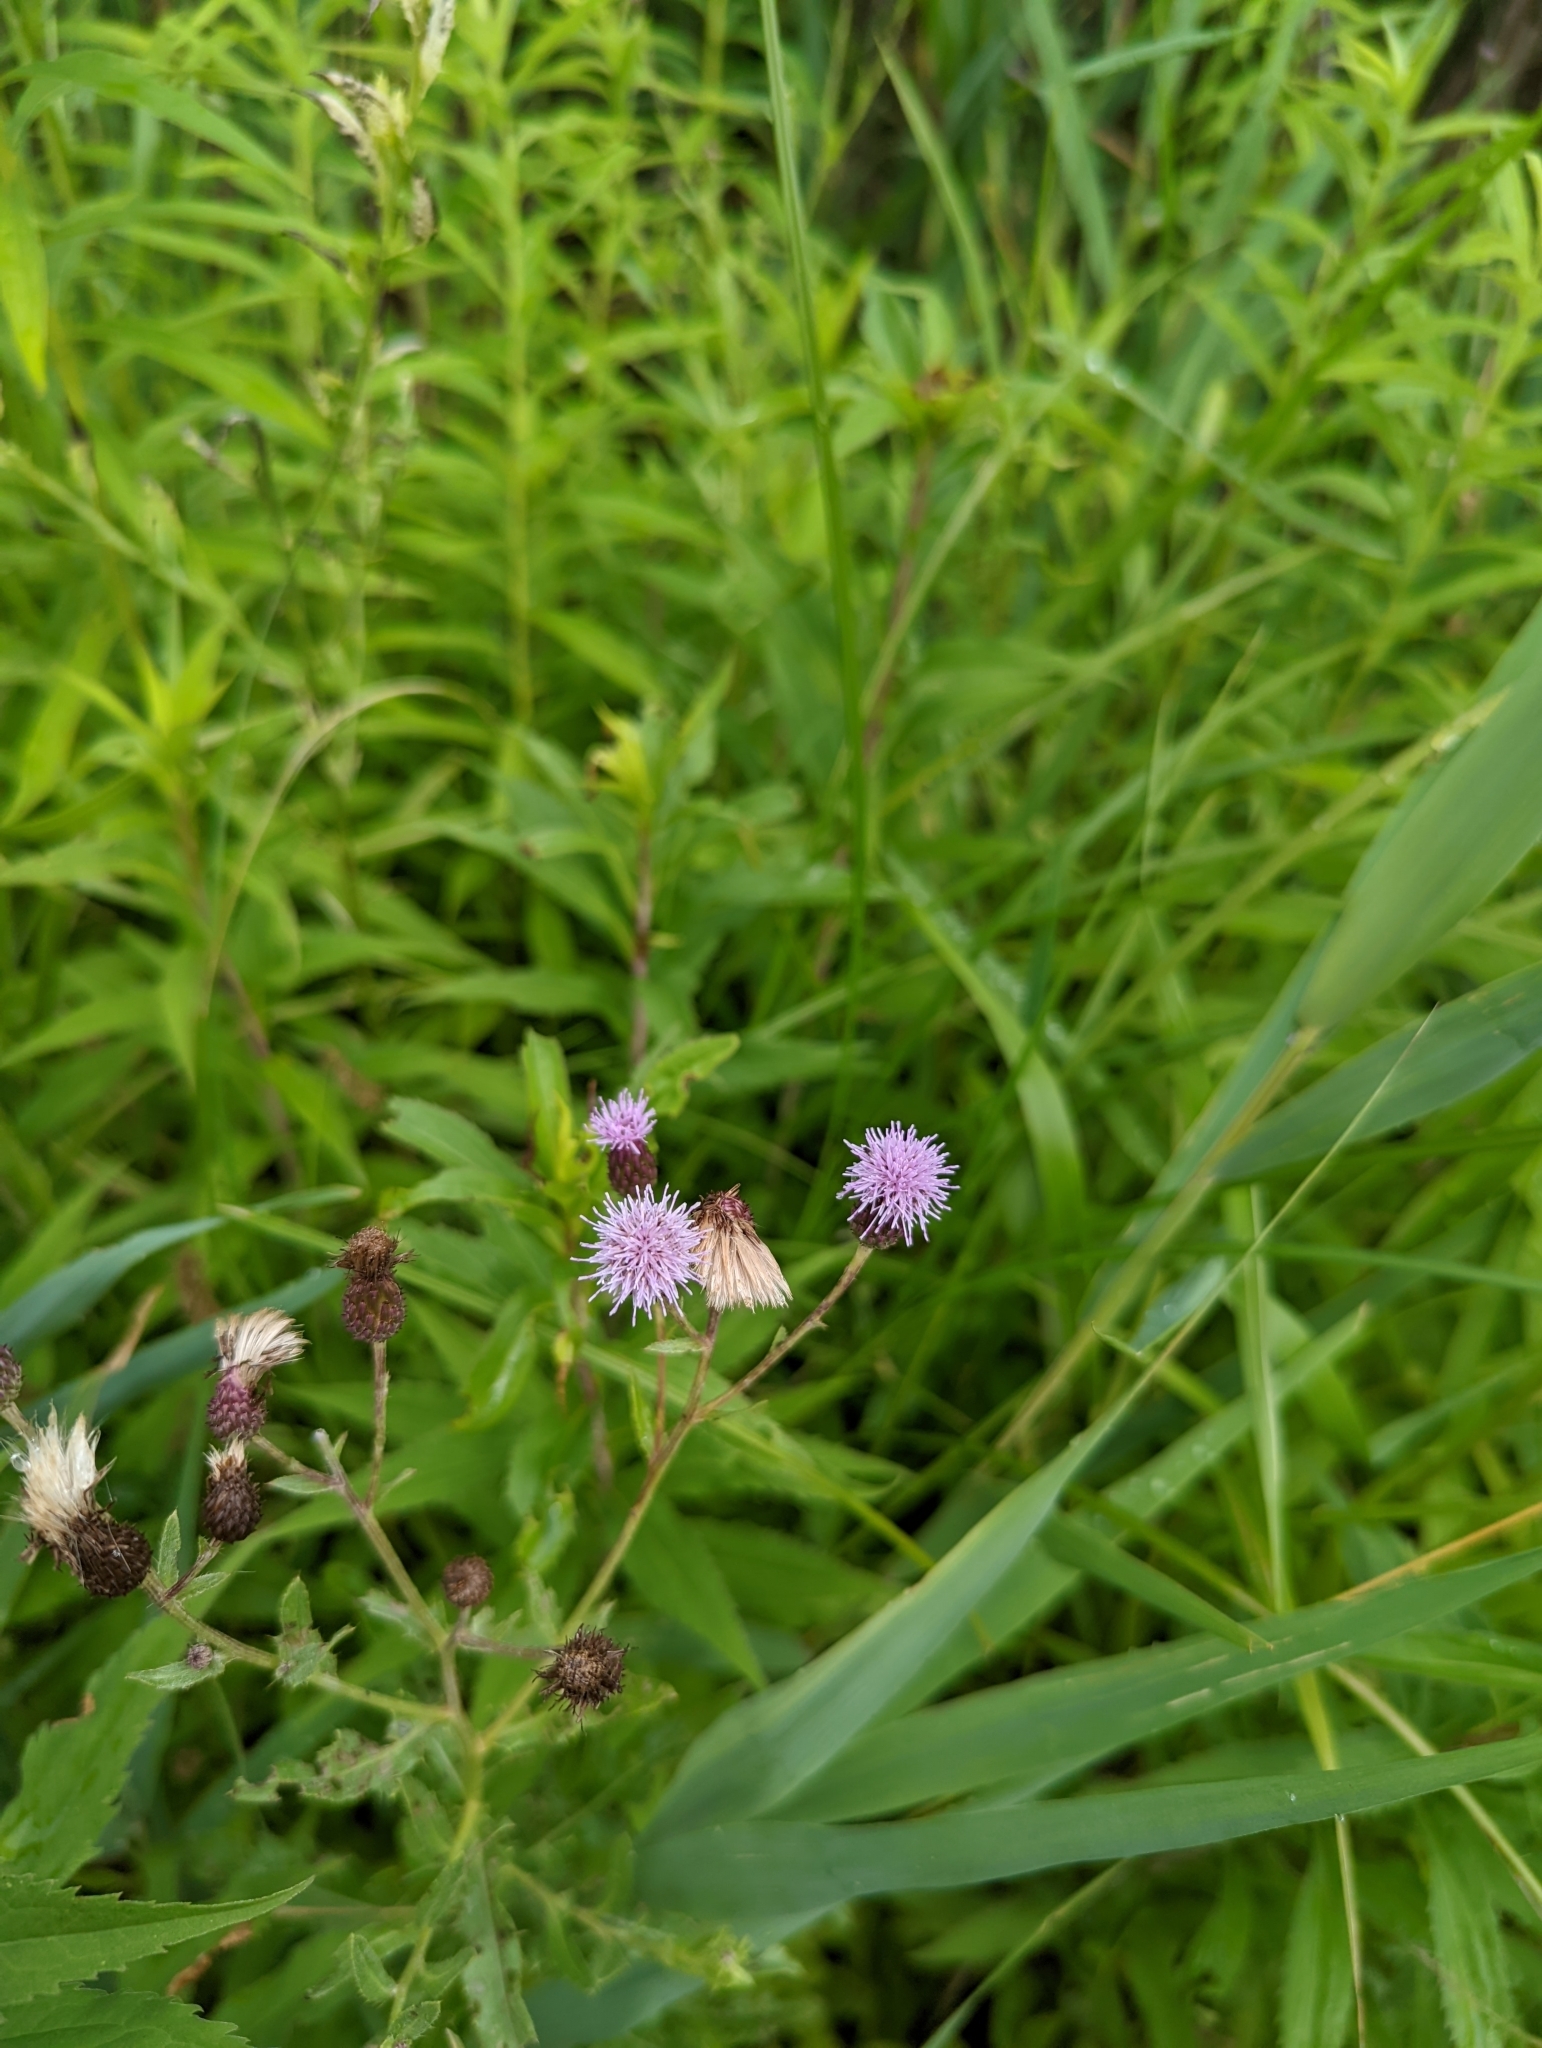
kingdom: Plantae
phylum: Tracheophyta
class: Magnoliopsida
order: Asterales
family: Asteraceae
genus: Cirsium
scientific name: Cirsium arvense
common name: Creeping thistle
